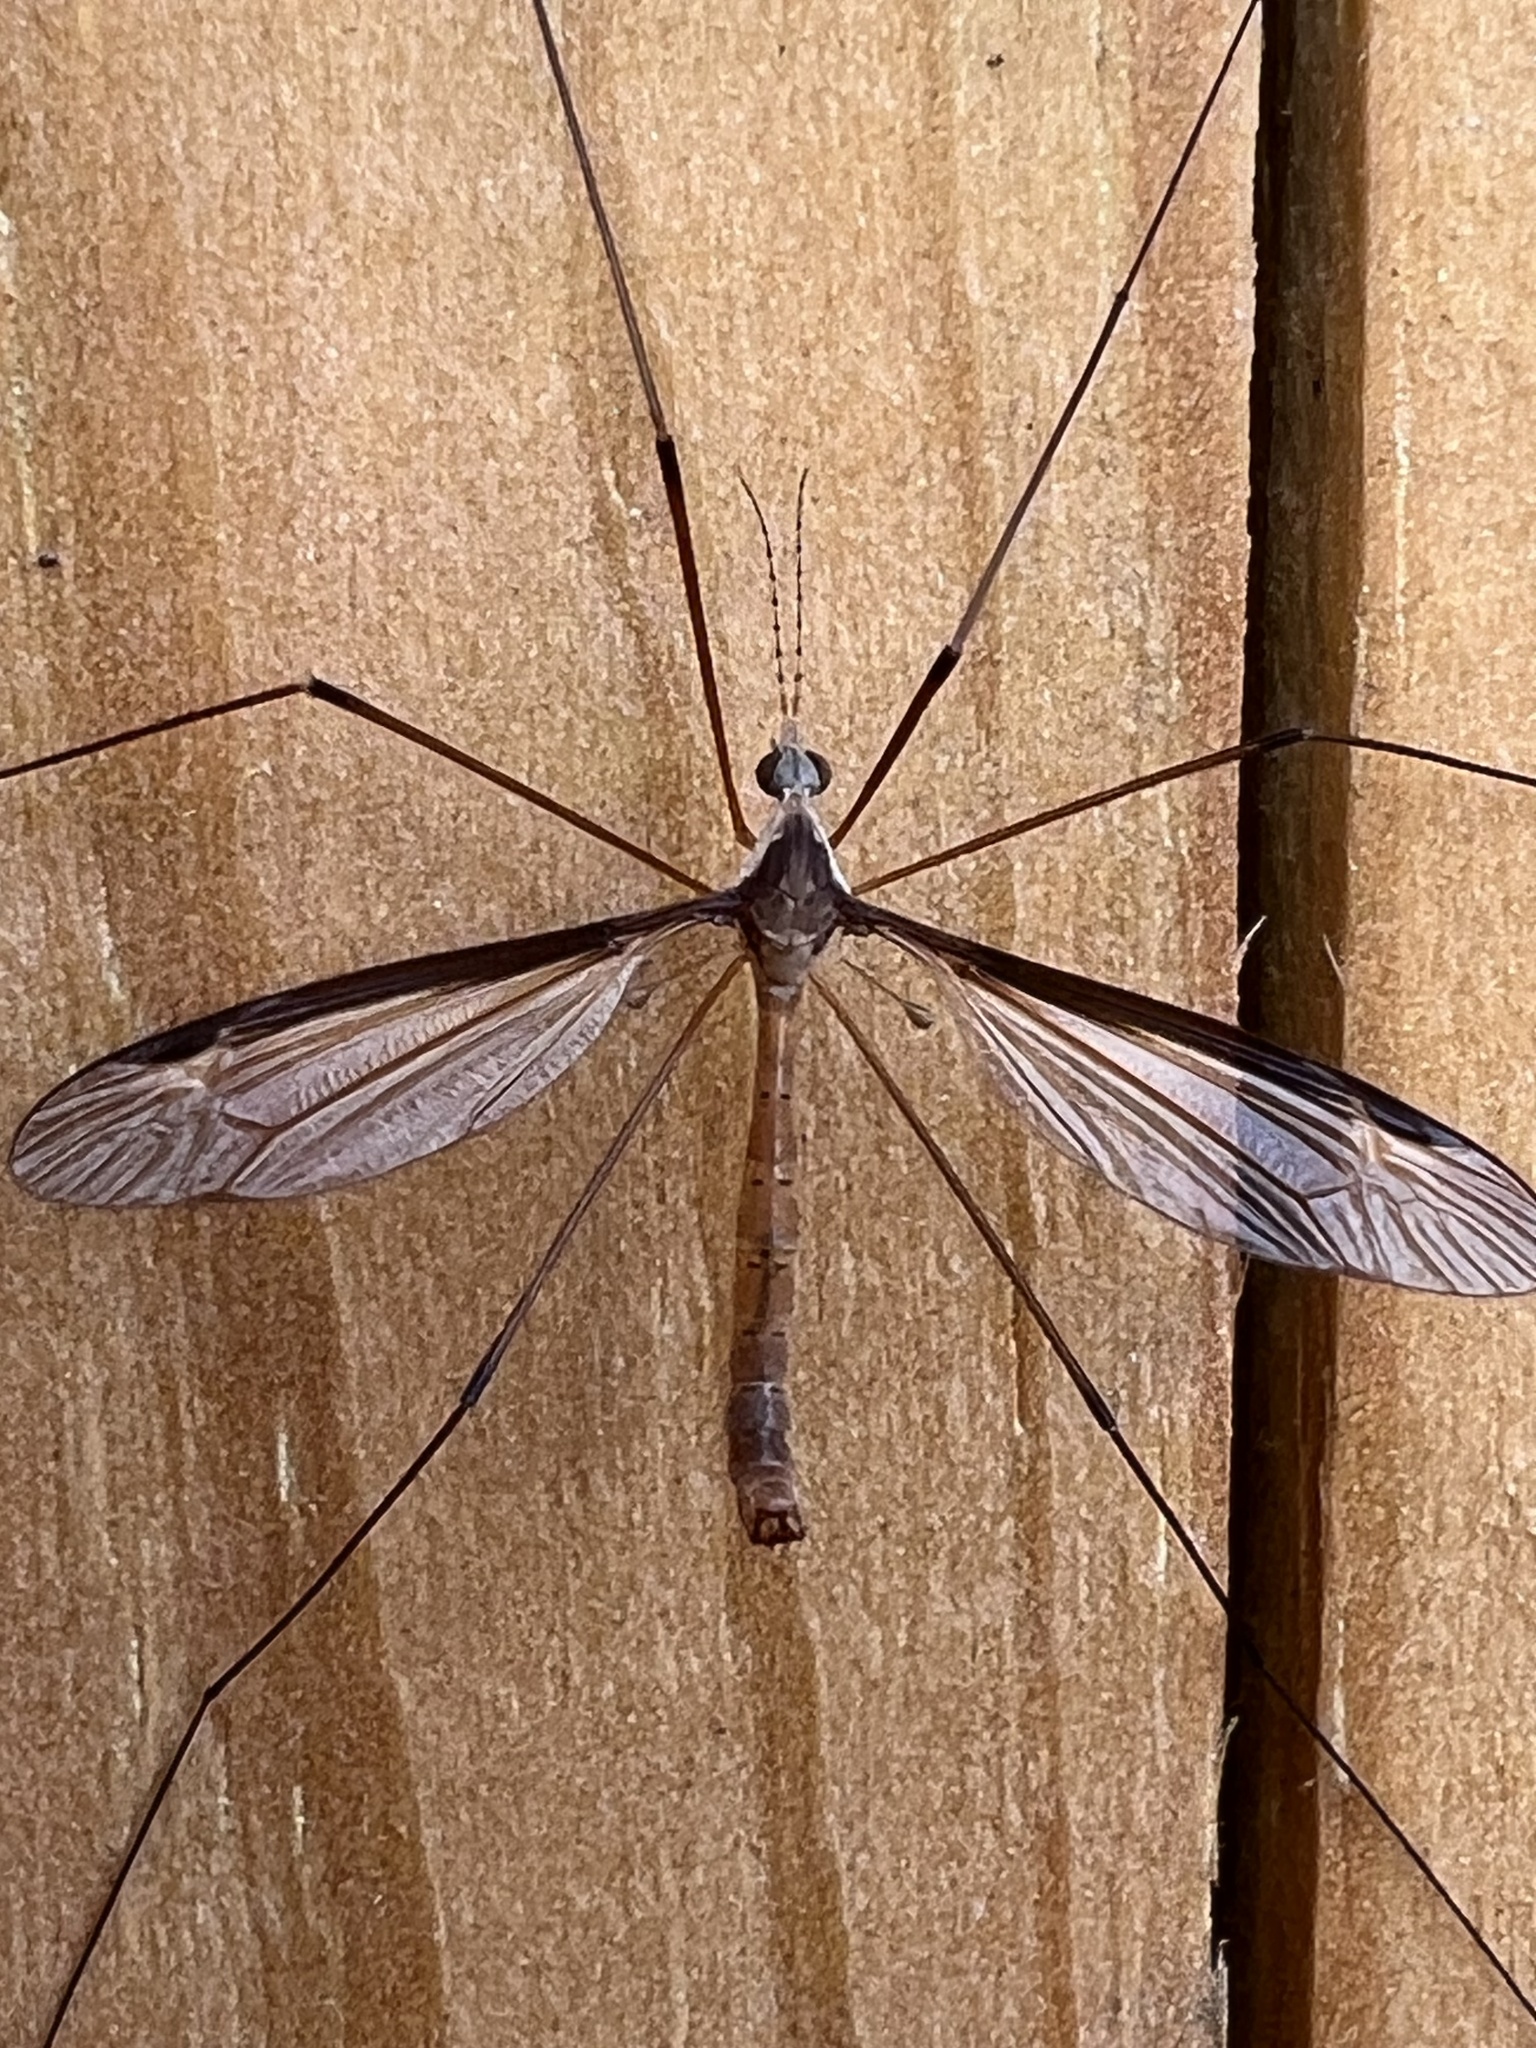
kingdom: Animalia
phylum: Arthropoda
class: Insecta
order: Diptera
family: Tipulidae
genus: Tipula
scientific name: Tipula sayi
